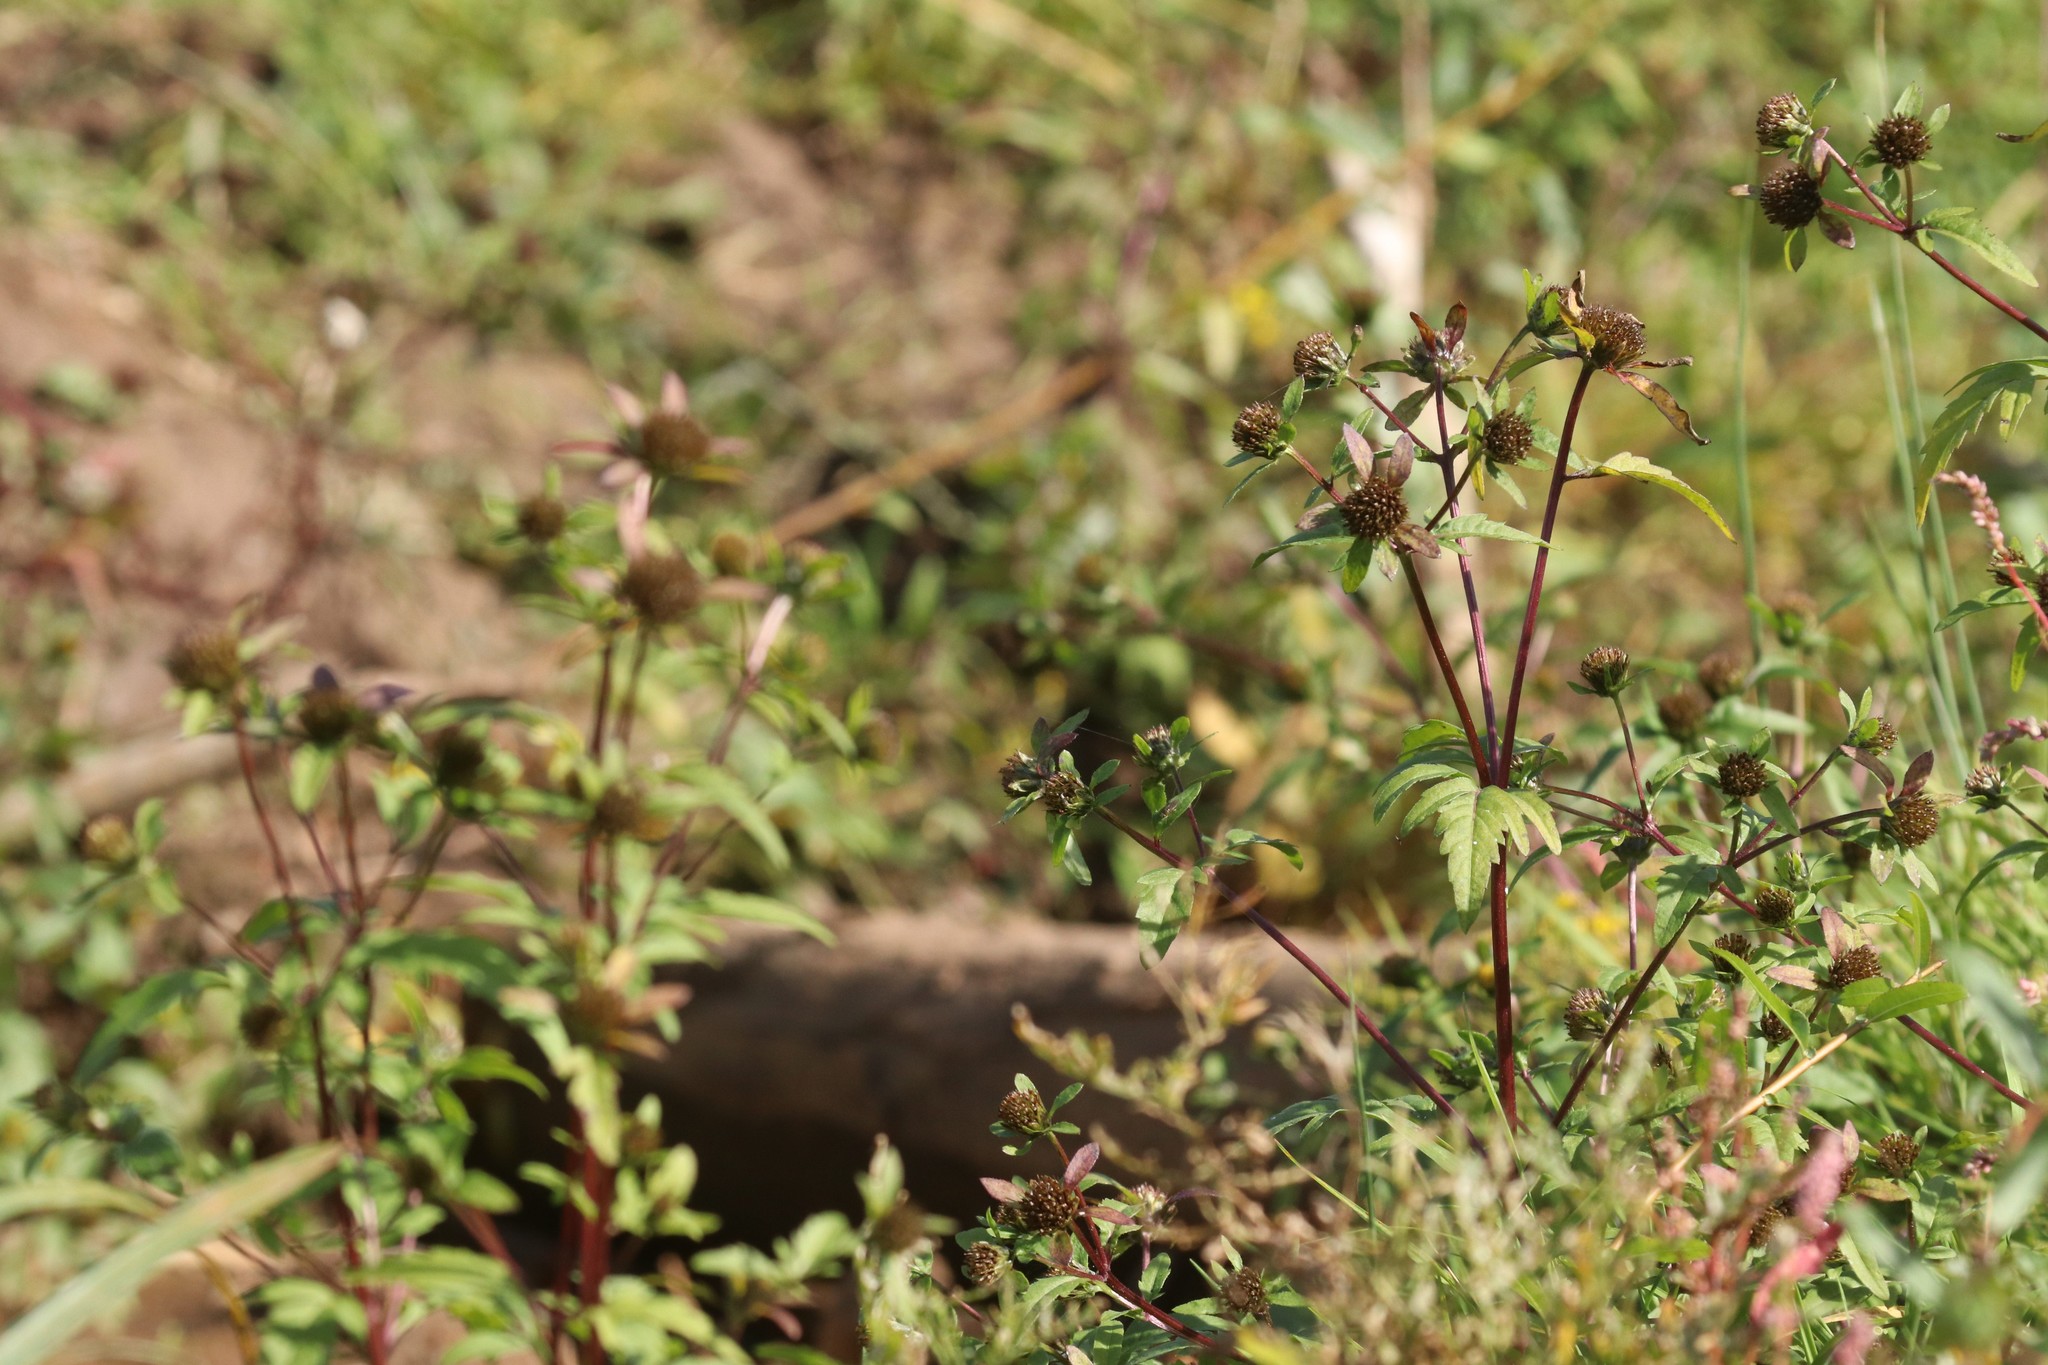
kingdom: Plantae
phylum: Tracheophyta
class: Magnoliopsida
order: Asterales
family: Asteraceae
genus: Bidens
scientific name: Bidens tripartita
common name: Trifid bur-marigold
